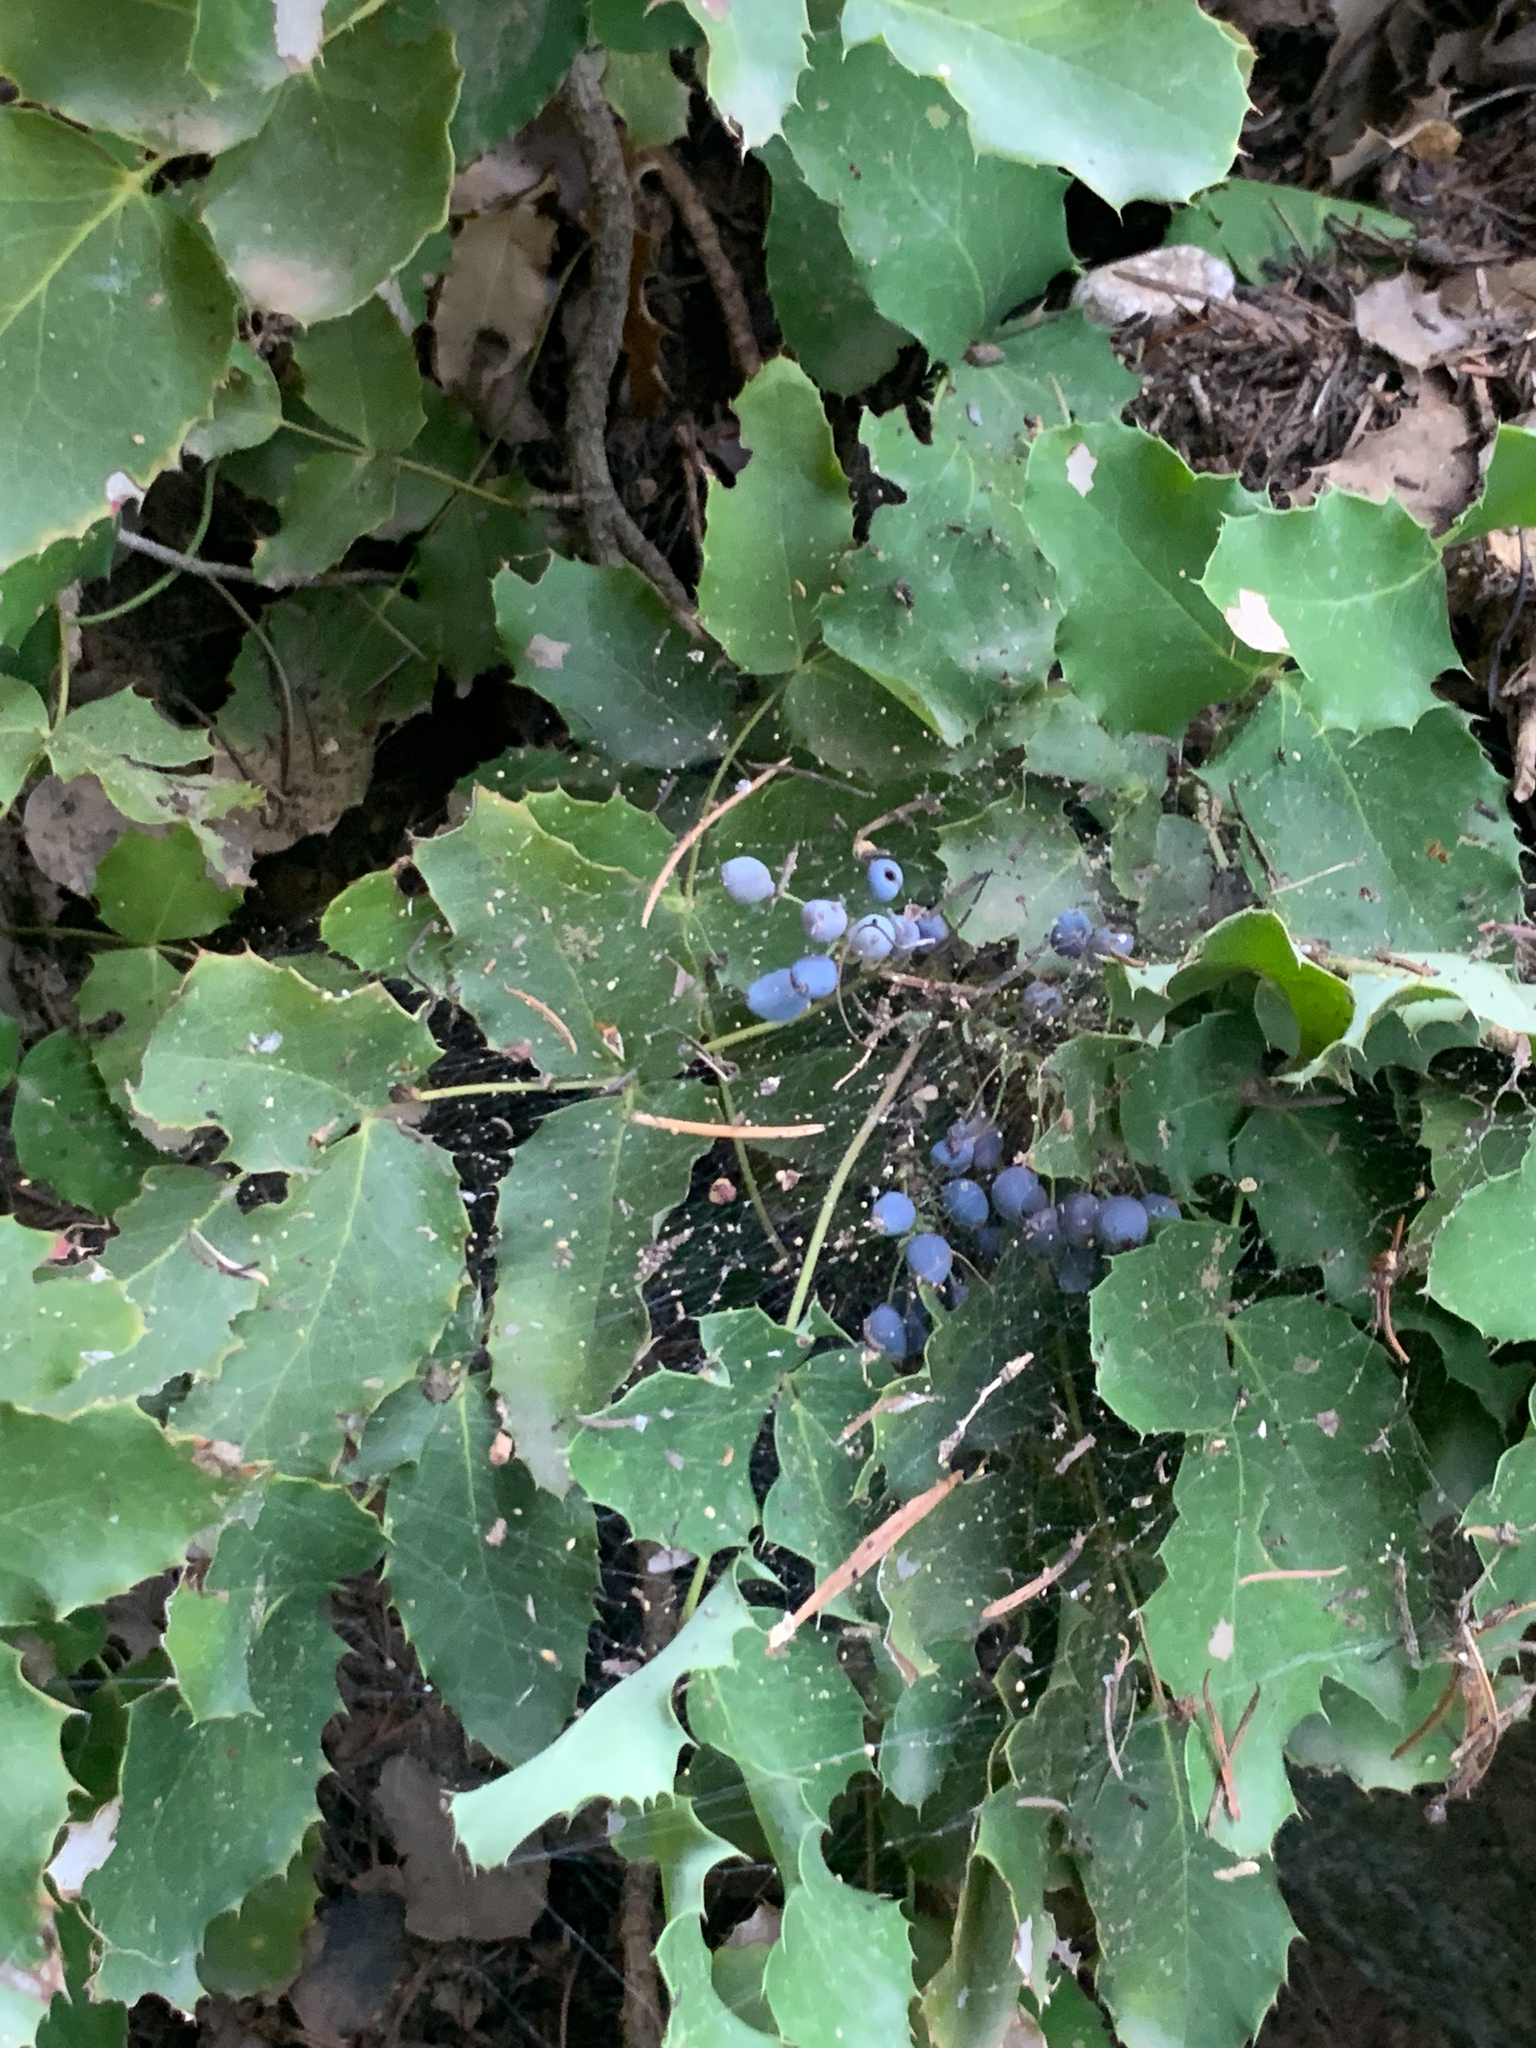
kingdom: Plantae
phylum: Tracheophyta
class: Magnoliopsida
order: Ranunculales
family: Berberidaceae
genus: Mahonia
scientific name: Mahonia repens
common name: Creeping oregon-grape
